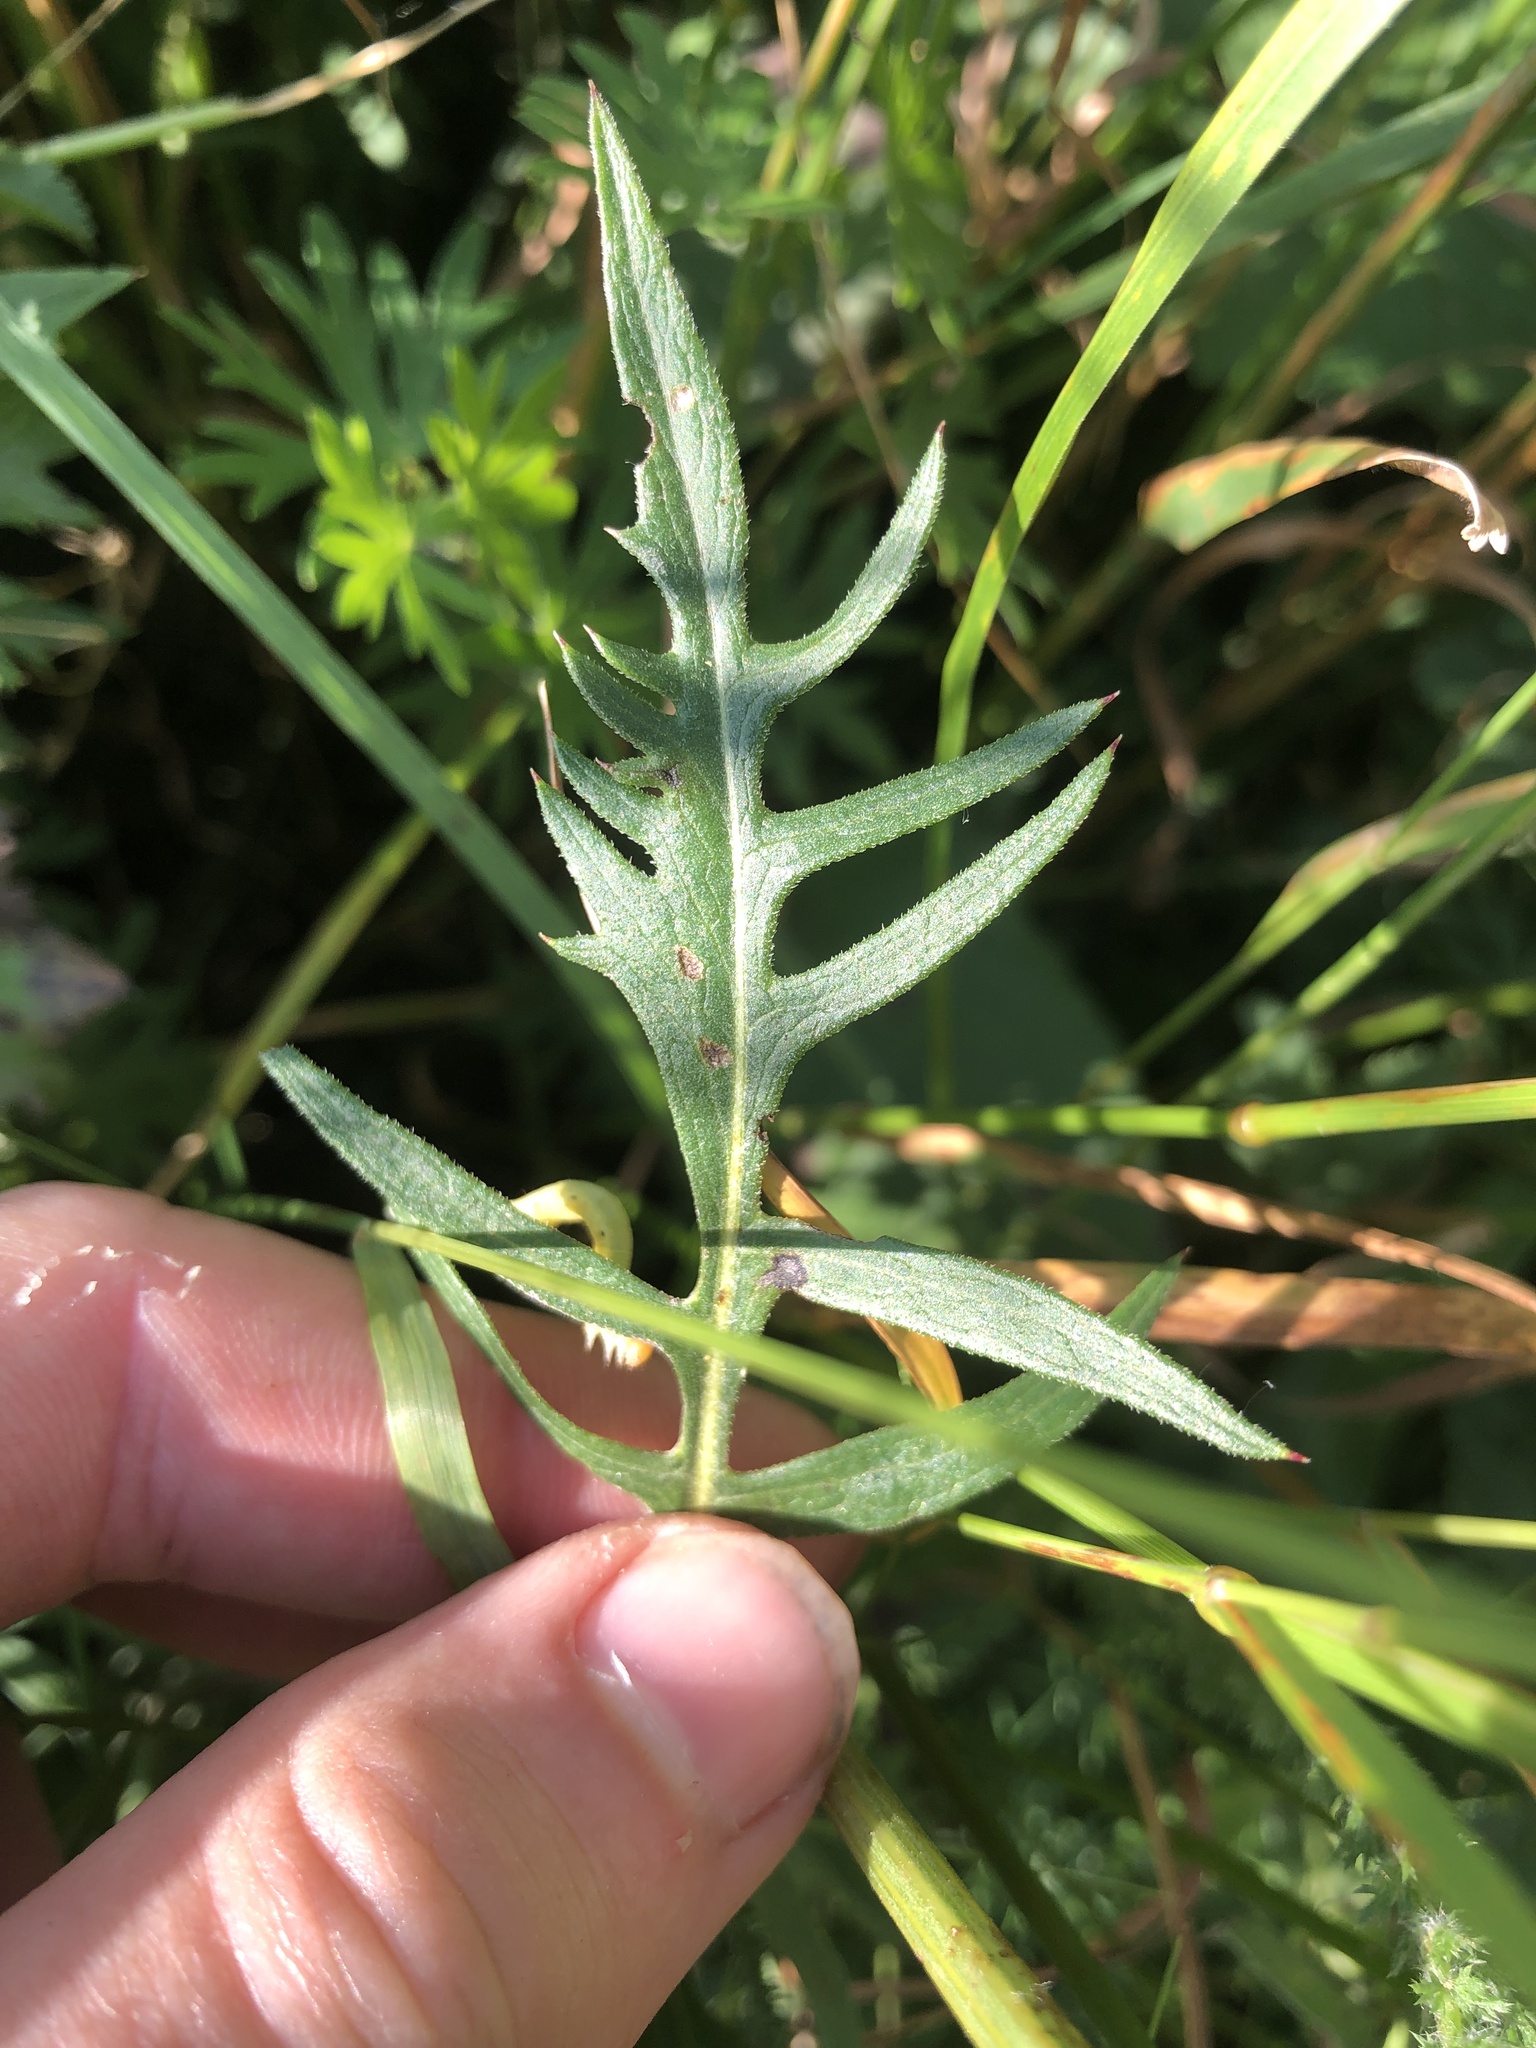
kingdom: Plantae
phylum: Tracheophyta
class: Magnoliopsida
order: Asterales
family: Asteraceae
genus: Klasea
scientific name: Klasea lycopifolia
